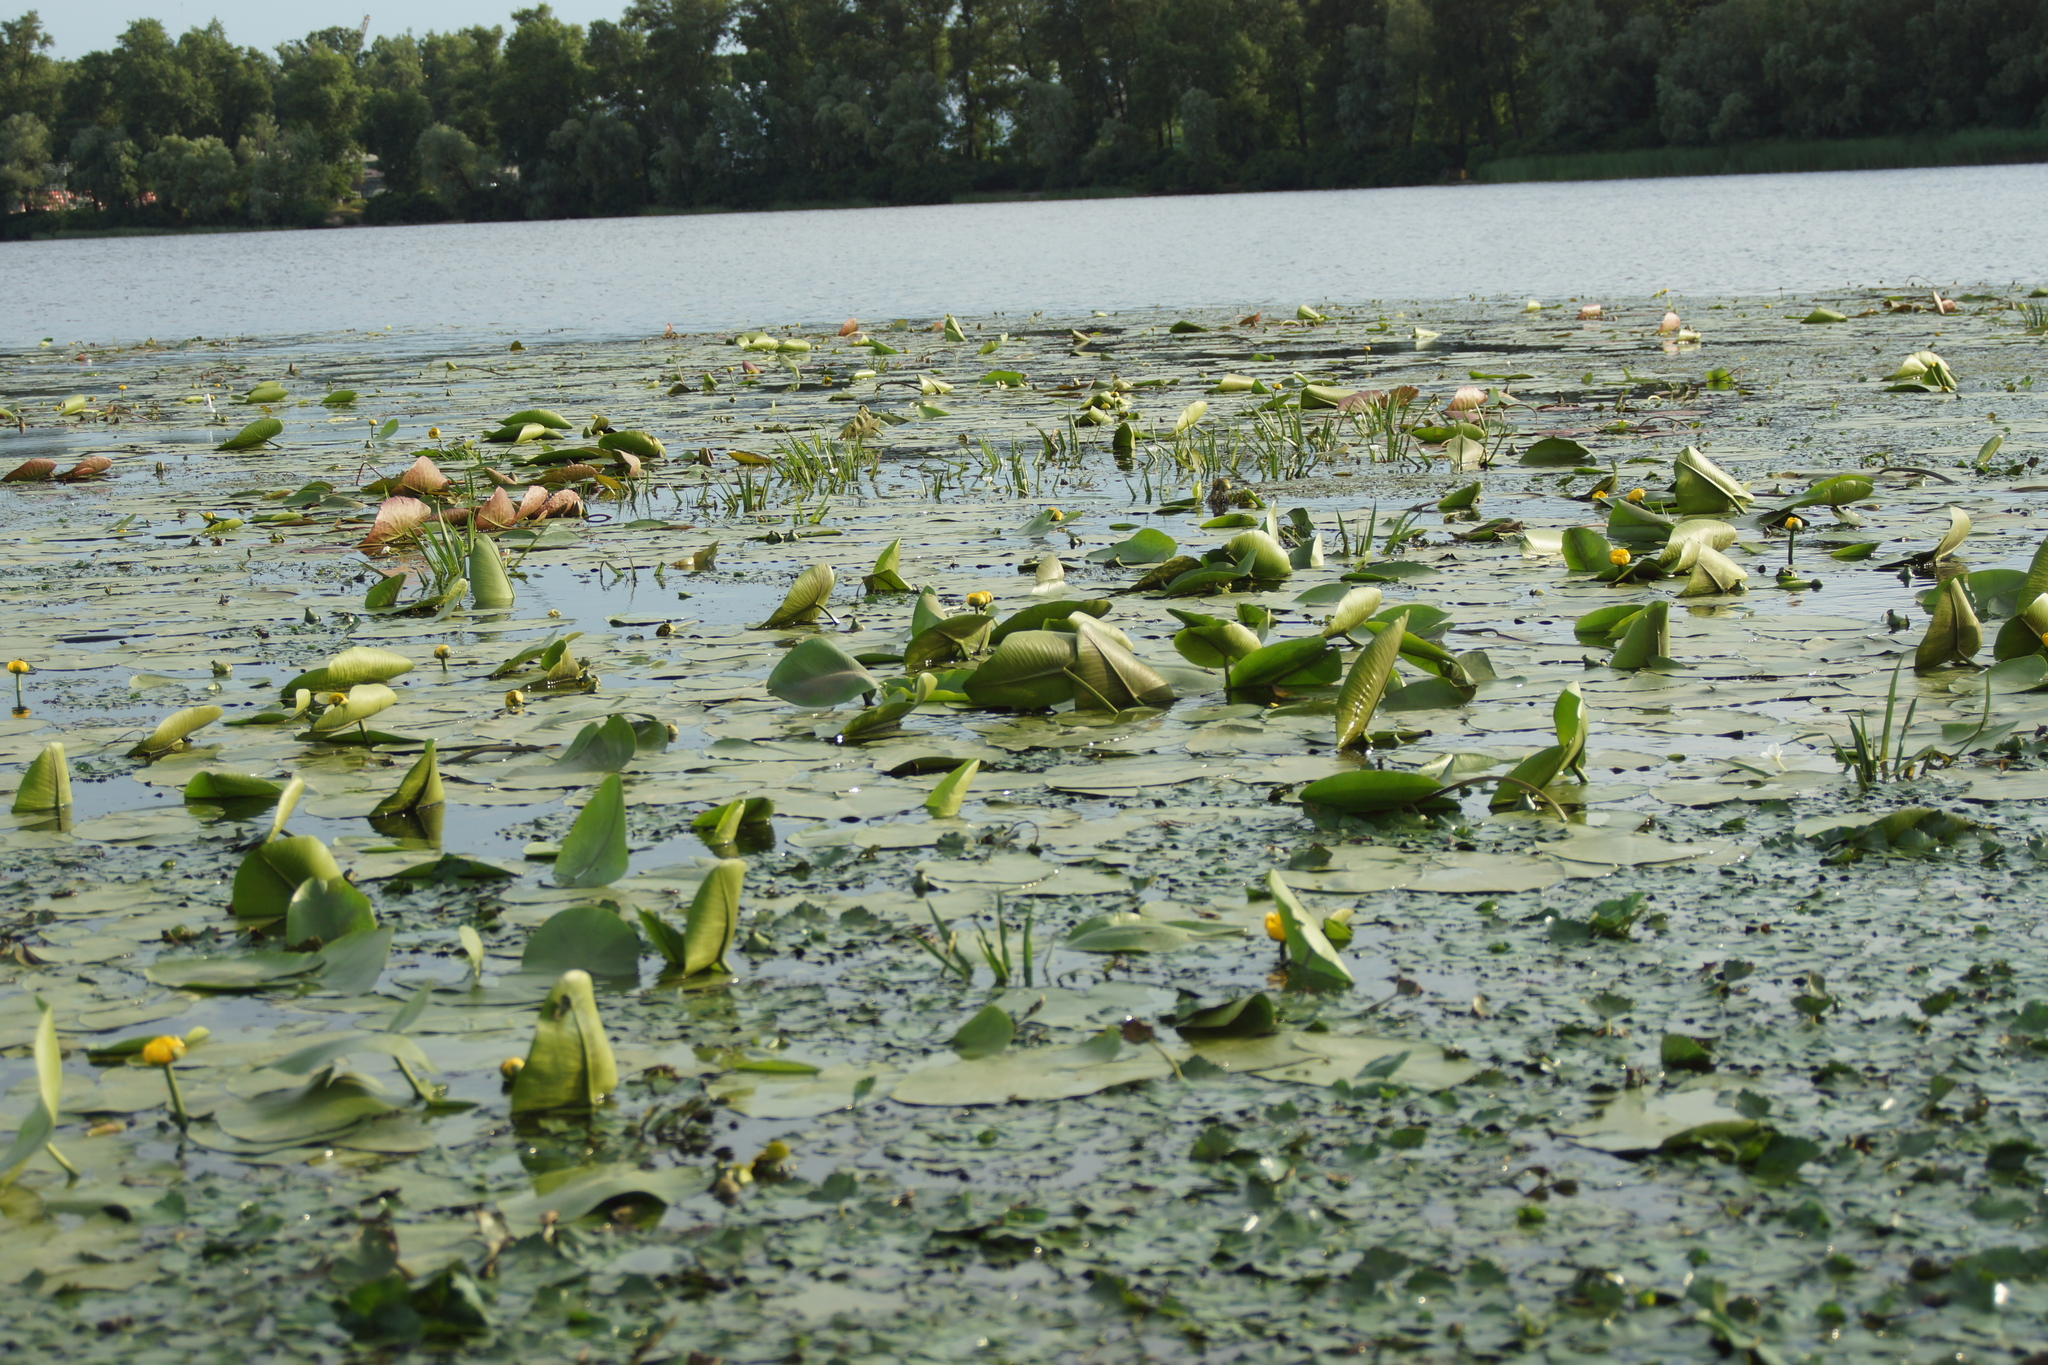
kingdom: Plantae
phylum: Tracheophyta
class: Magnoliopsida
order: Nymphaeales
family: Nymphaeaceae
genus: Nuphar
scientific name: Nuphar lutea
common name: Yellow water-lily
